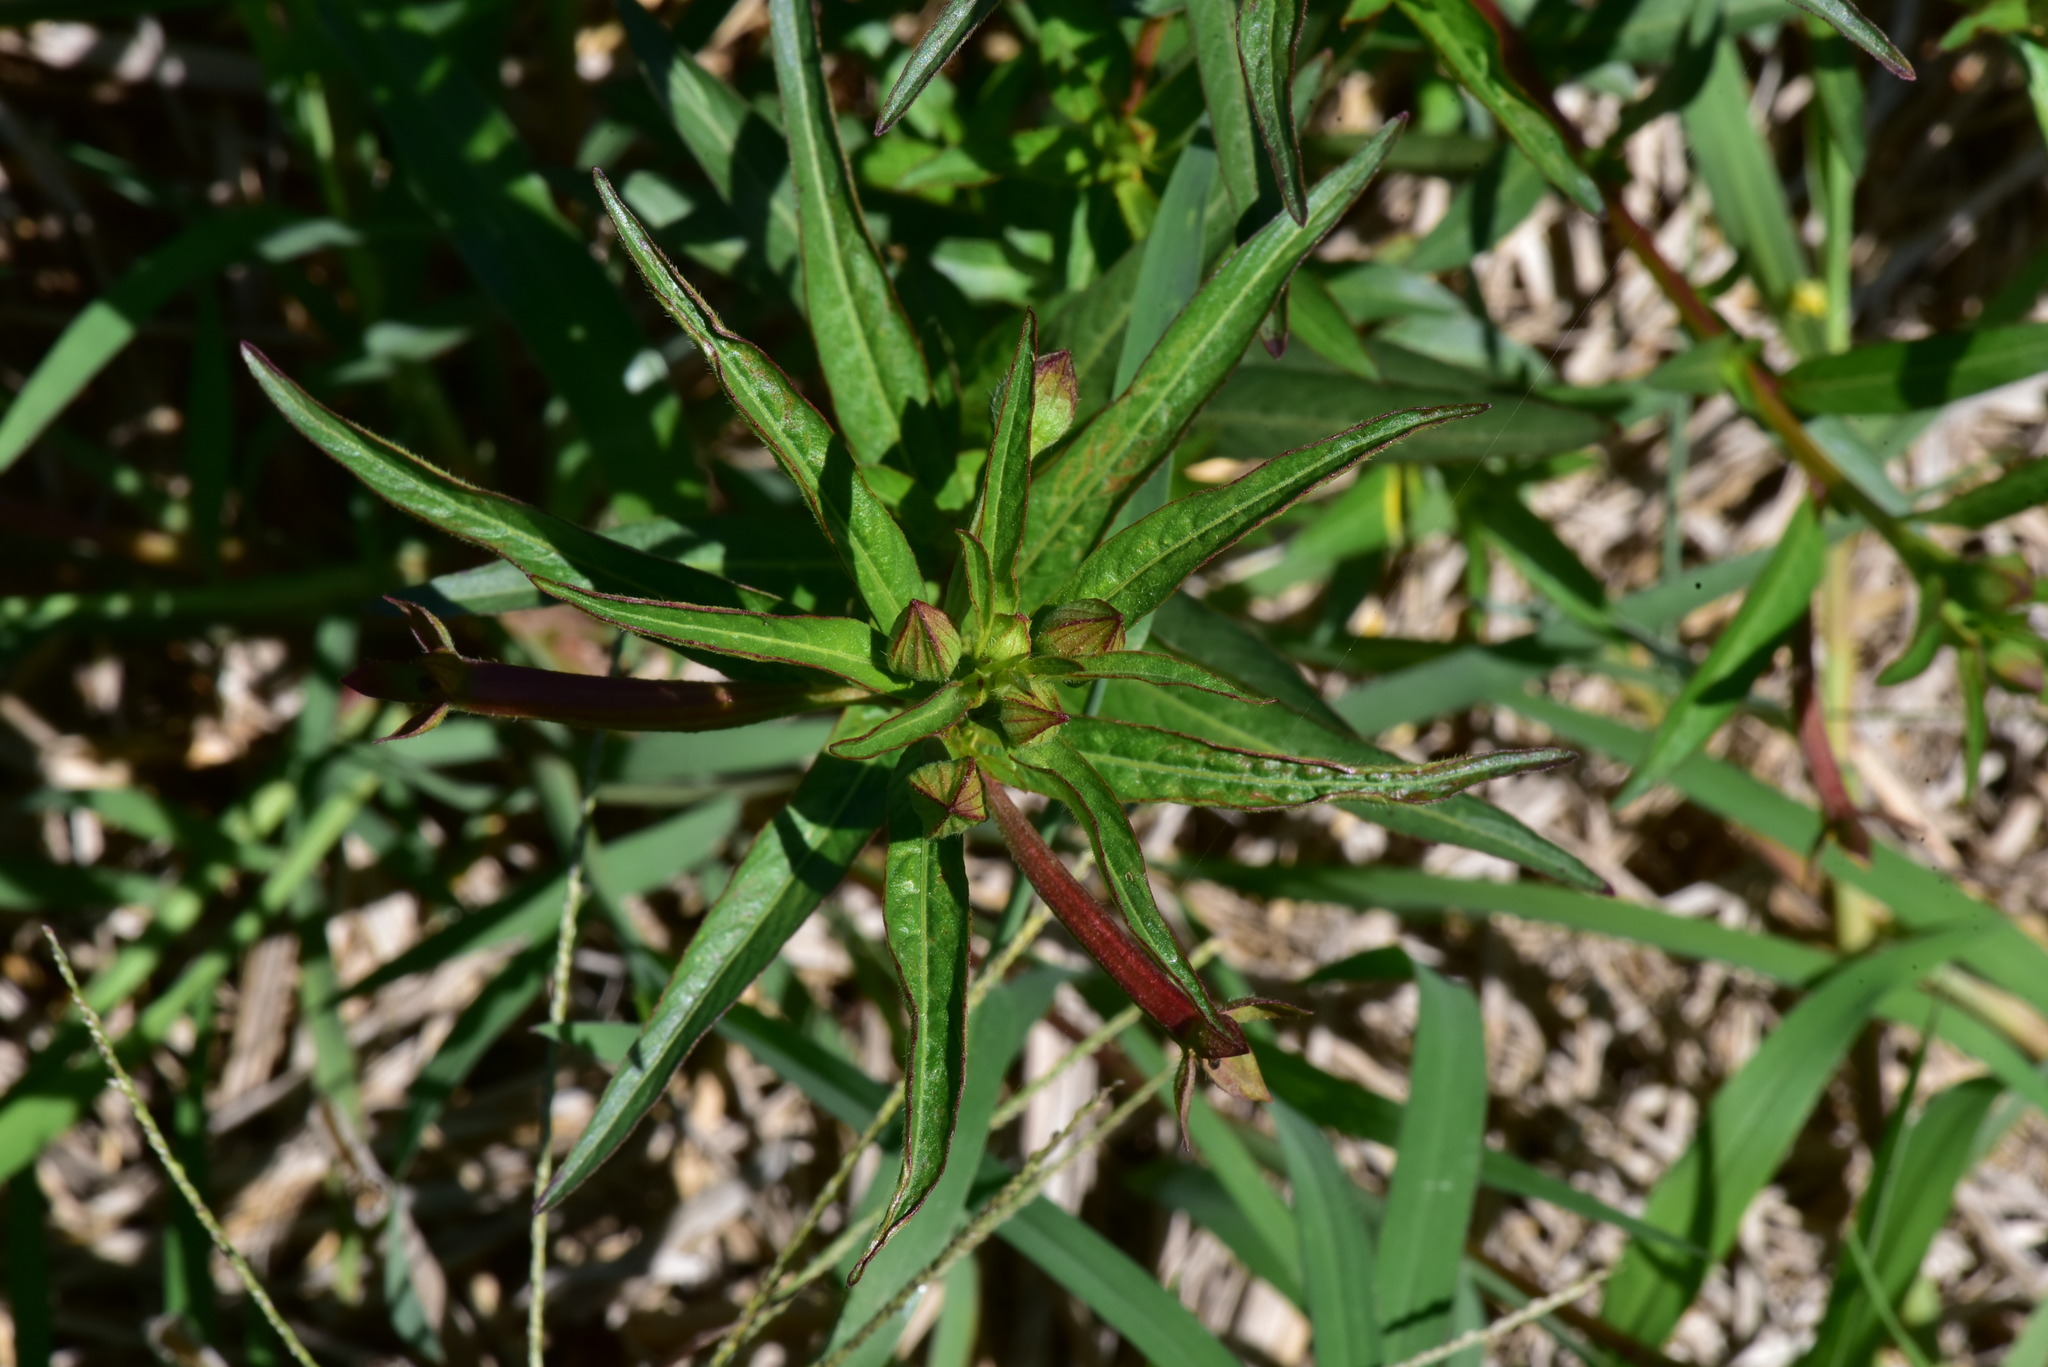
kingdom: Plantae
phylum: Tracheophyta
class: Magnoliopsida
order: Myrtales
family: Onagraceae
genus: Ludwigia
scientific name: Ludwigia octovalvis
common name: Water-primrose
